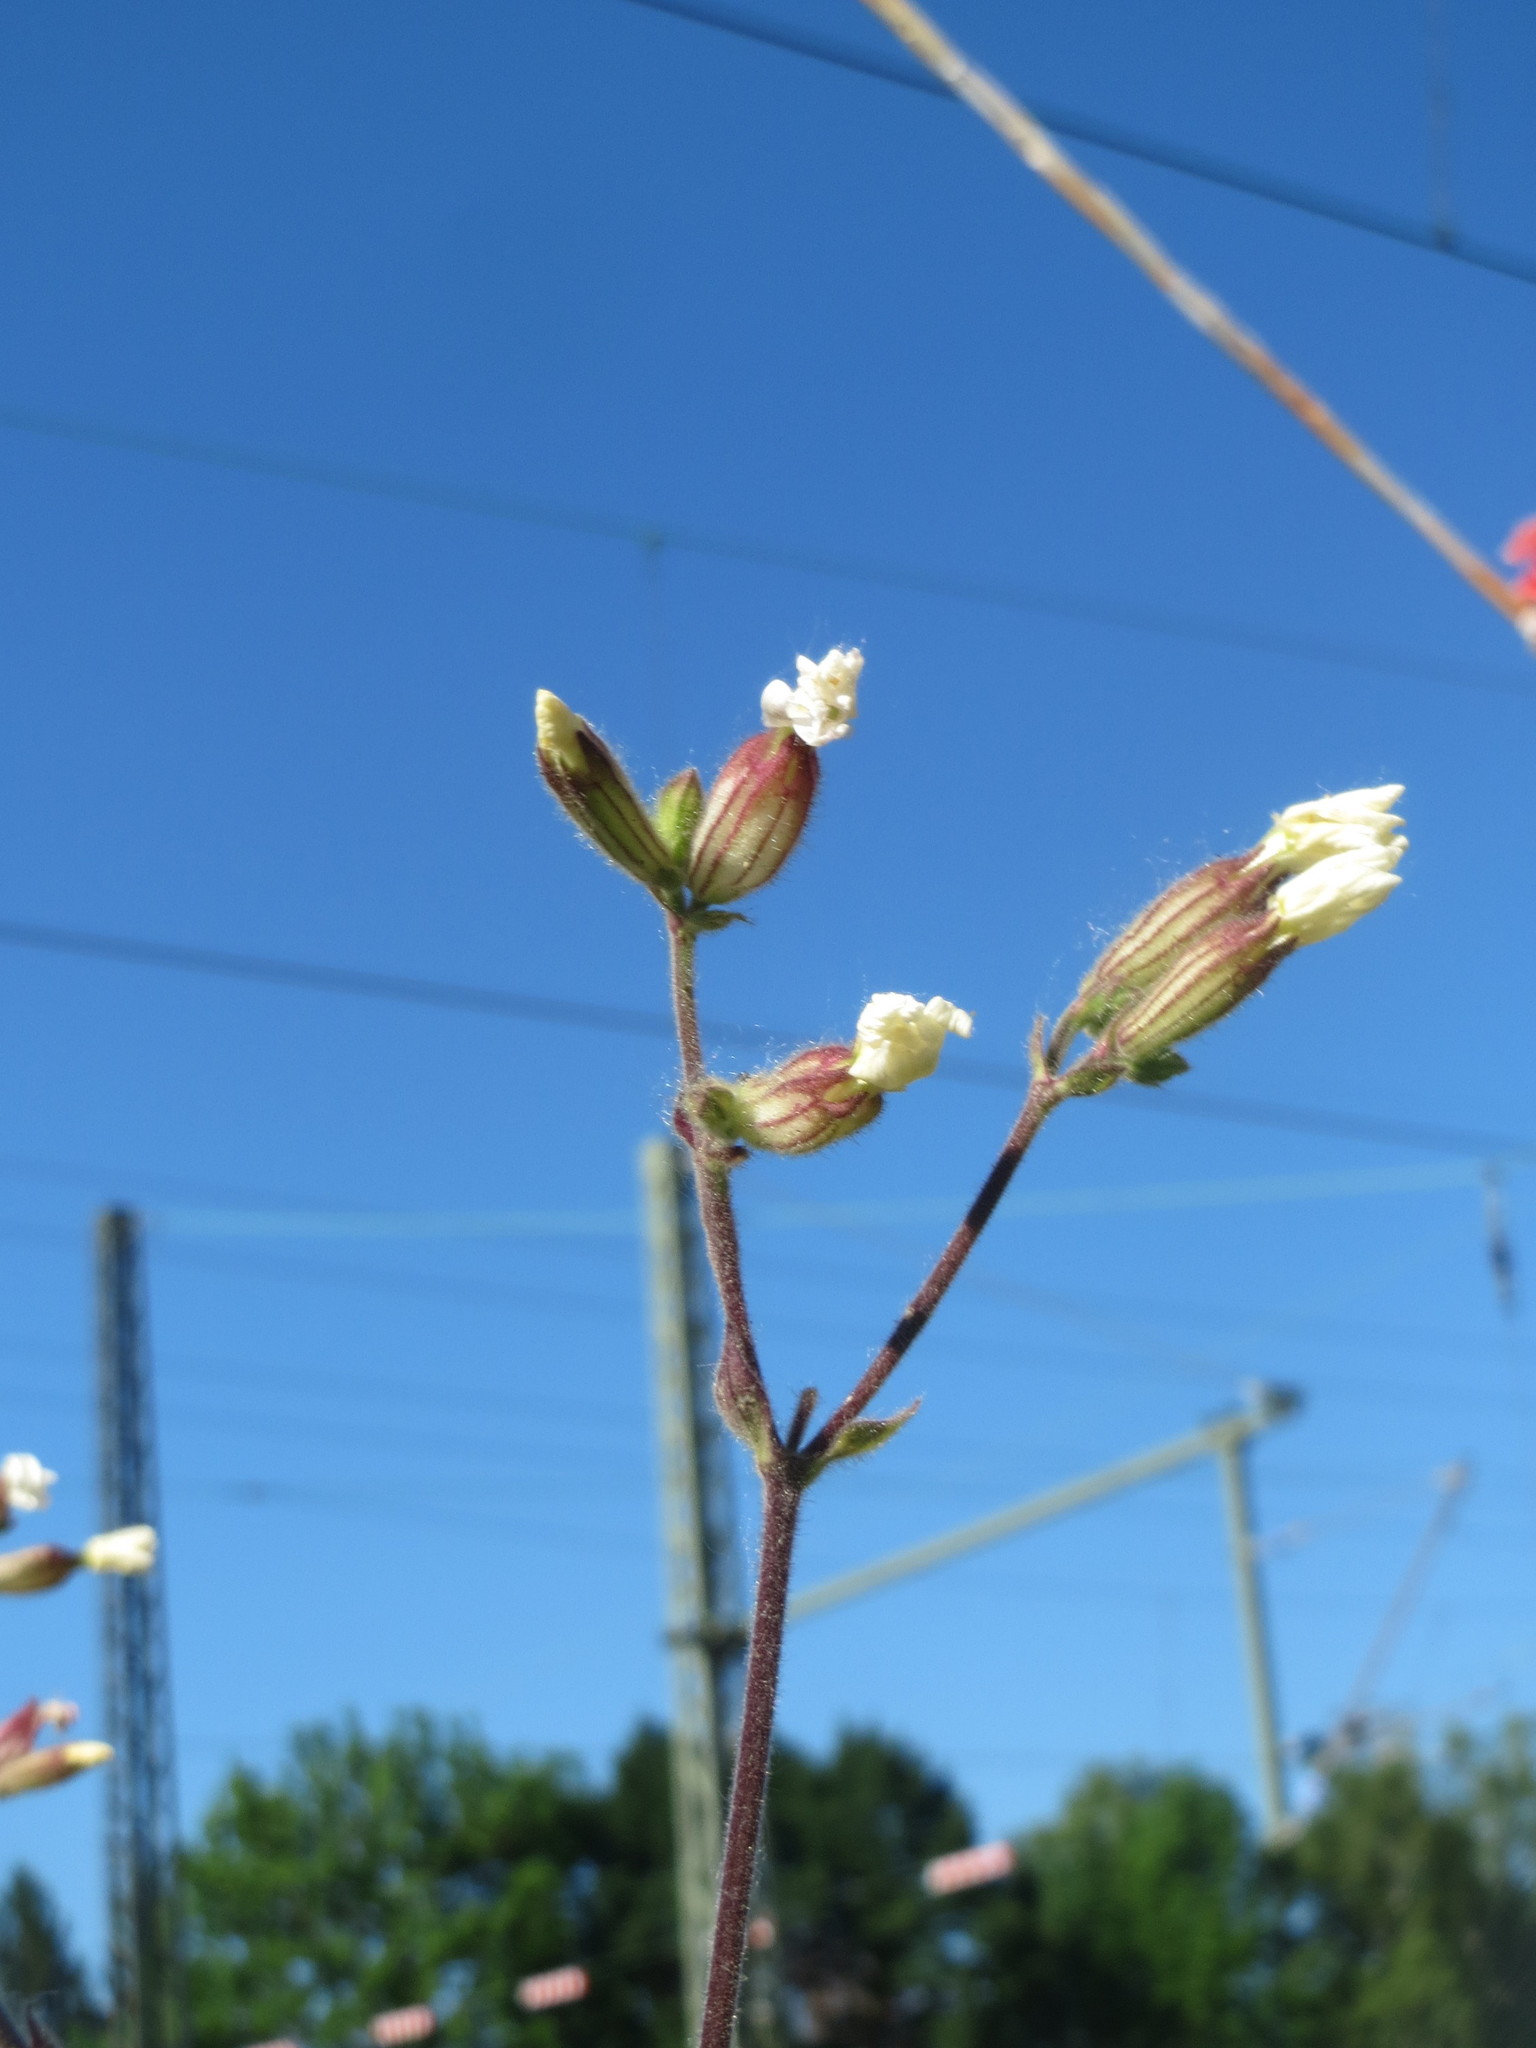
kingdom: Plantae
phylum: Tracheophyta
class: Magnoliopsida
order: Caryophyllales
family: Caryophyllaceae
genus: Silene
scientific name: Silene latifolia
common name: White campion
